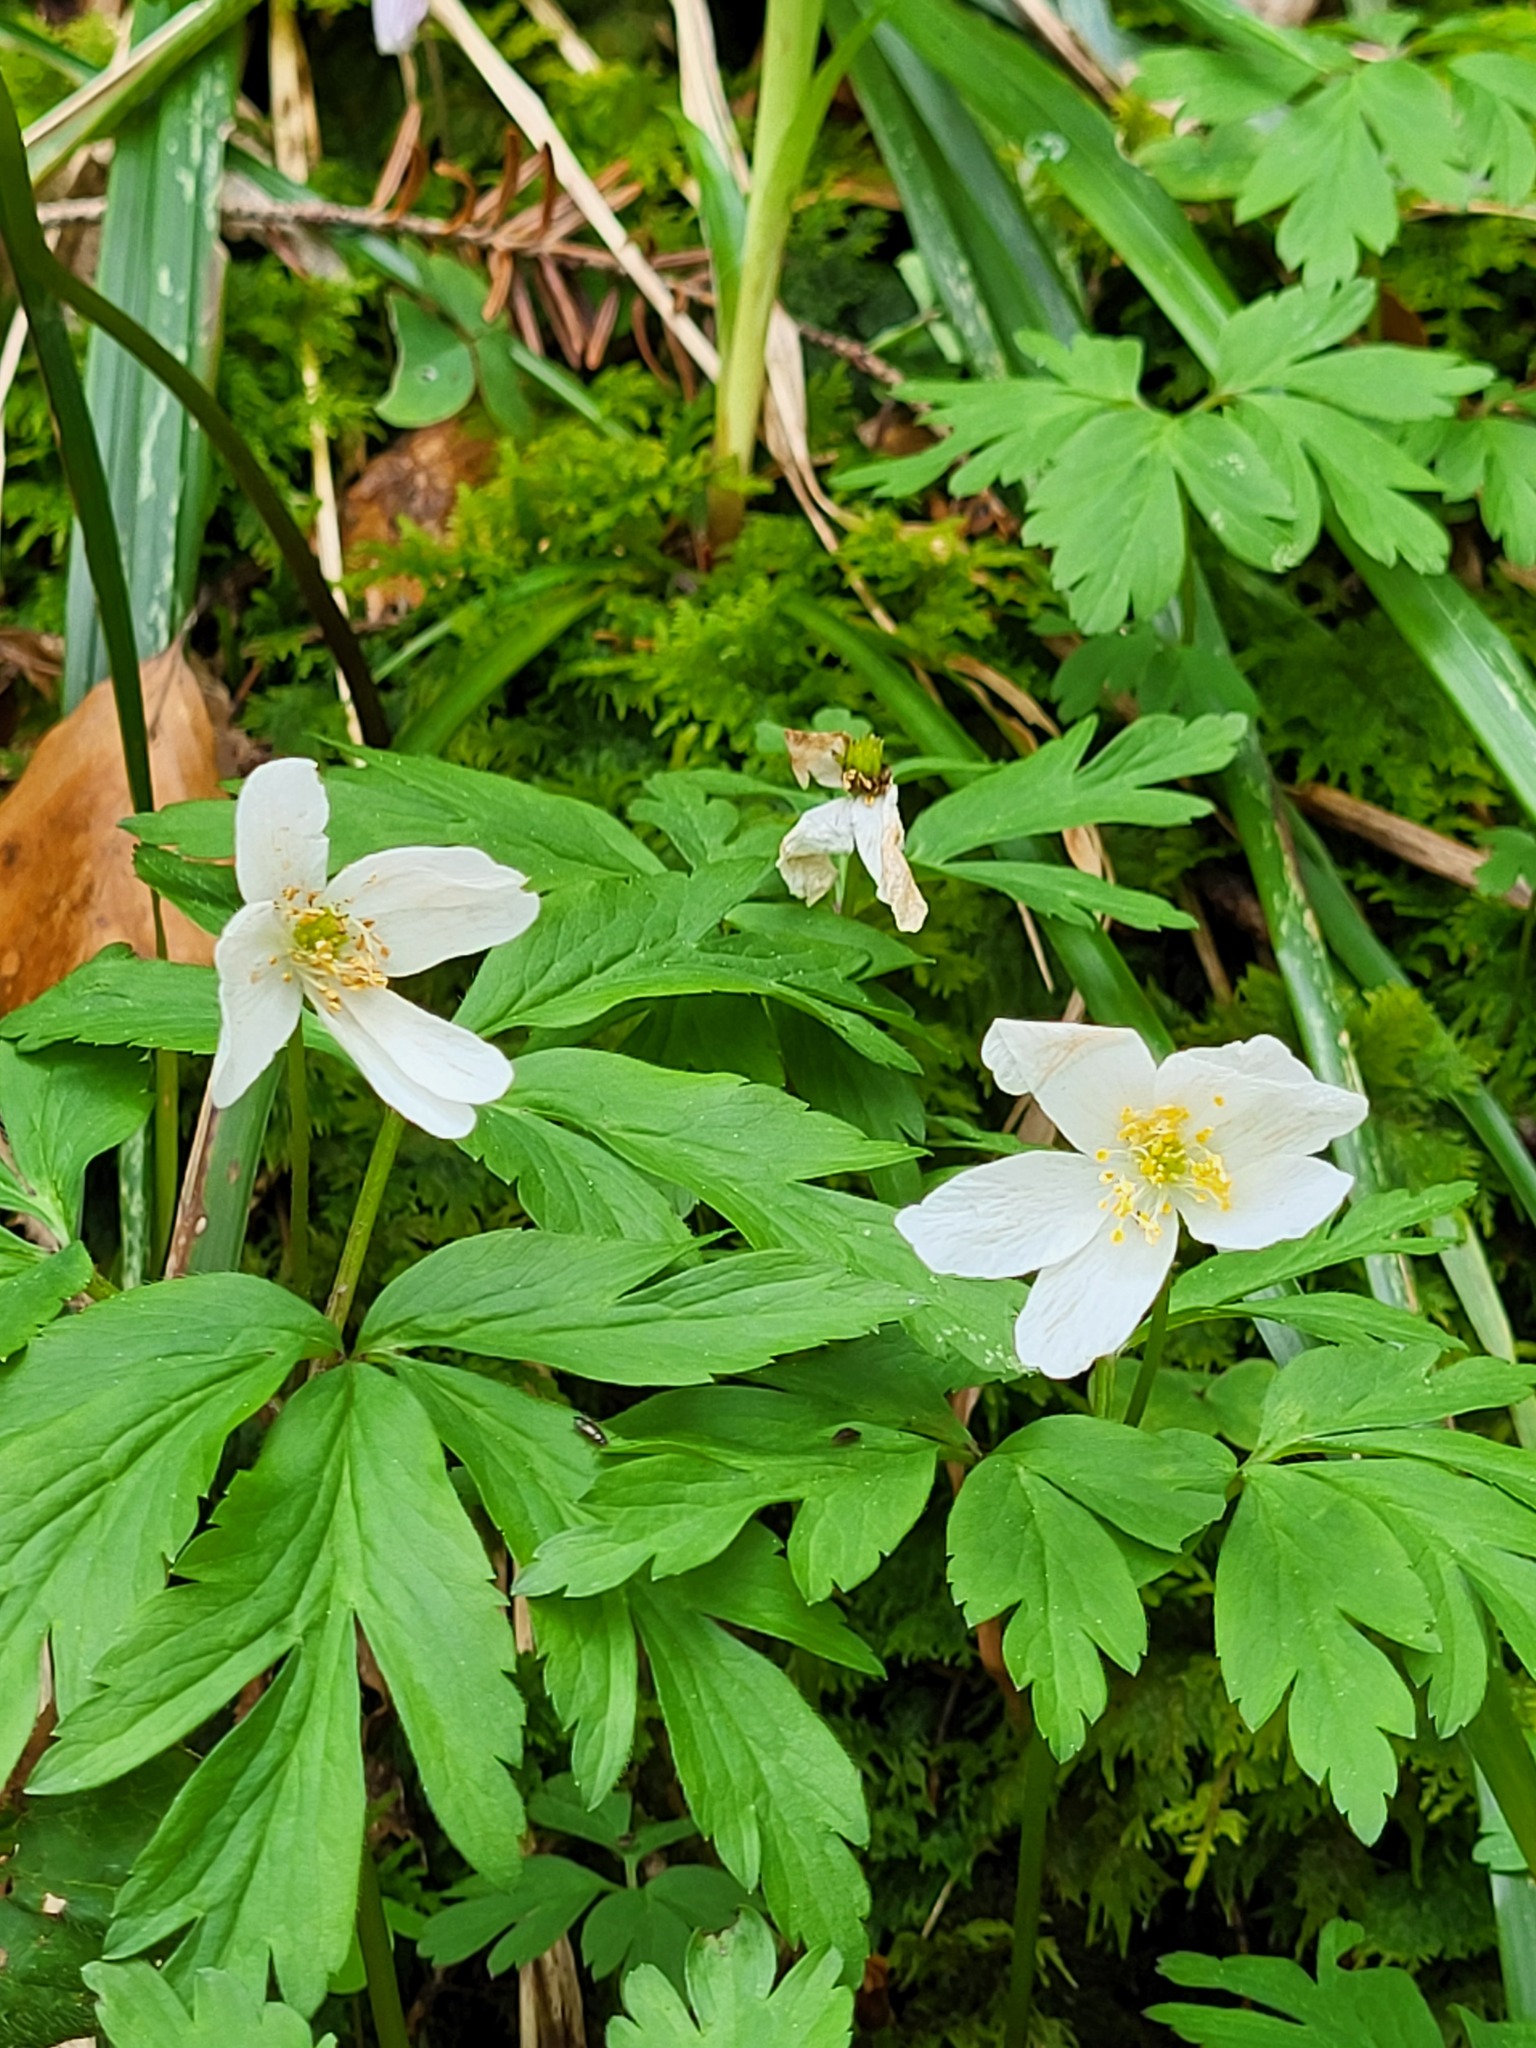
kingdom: Plantae
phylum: Tracheophyta
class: Magnoliopsida
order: Ranunculales
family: Ranunculaceae
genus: Anemone
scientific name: Anemone nemorosa
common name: Wood anemone
